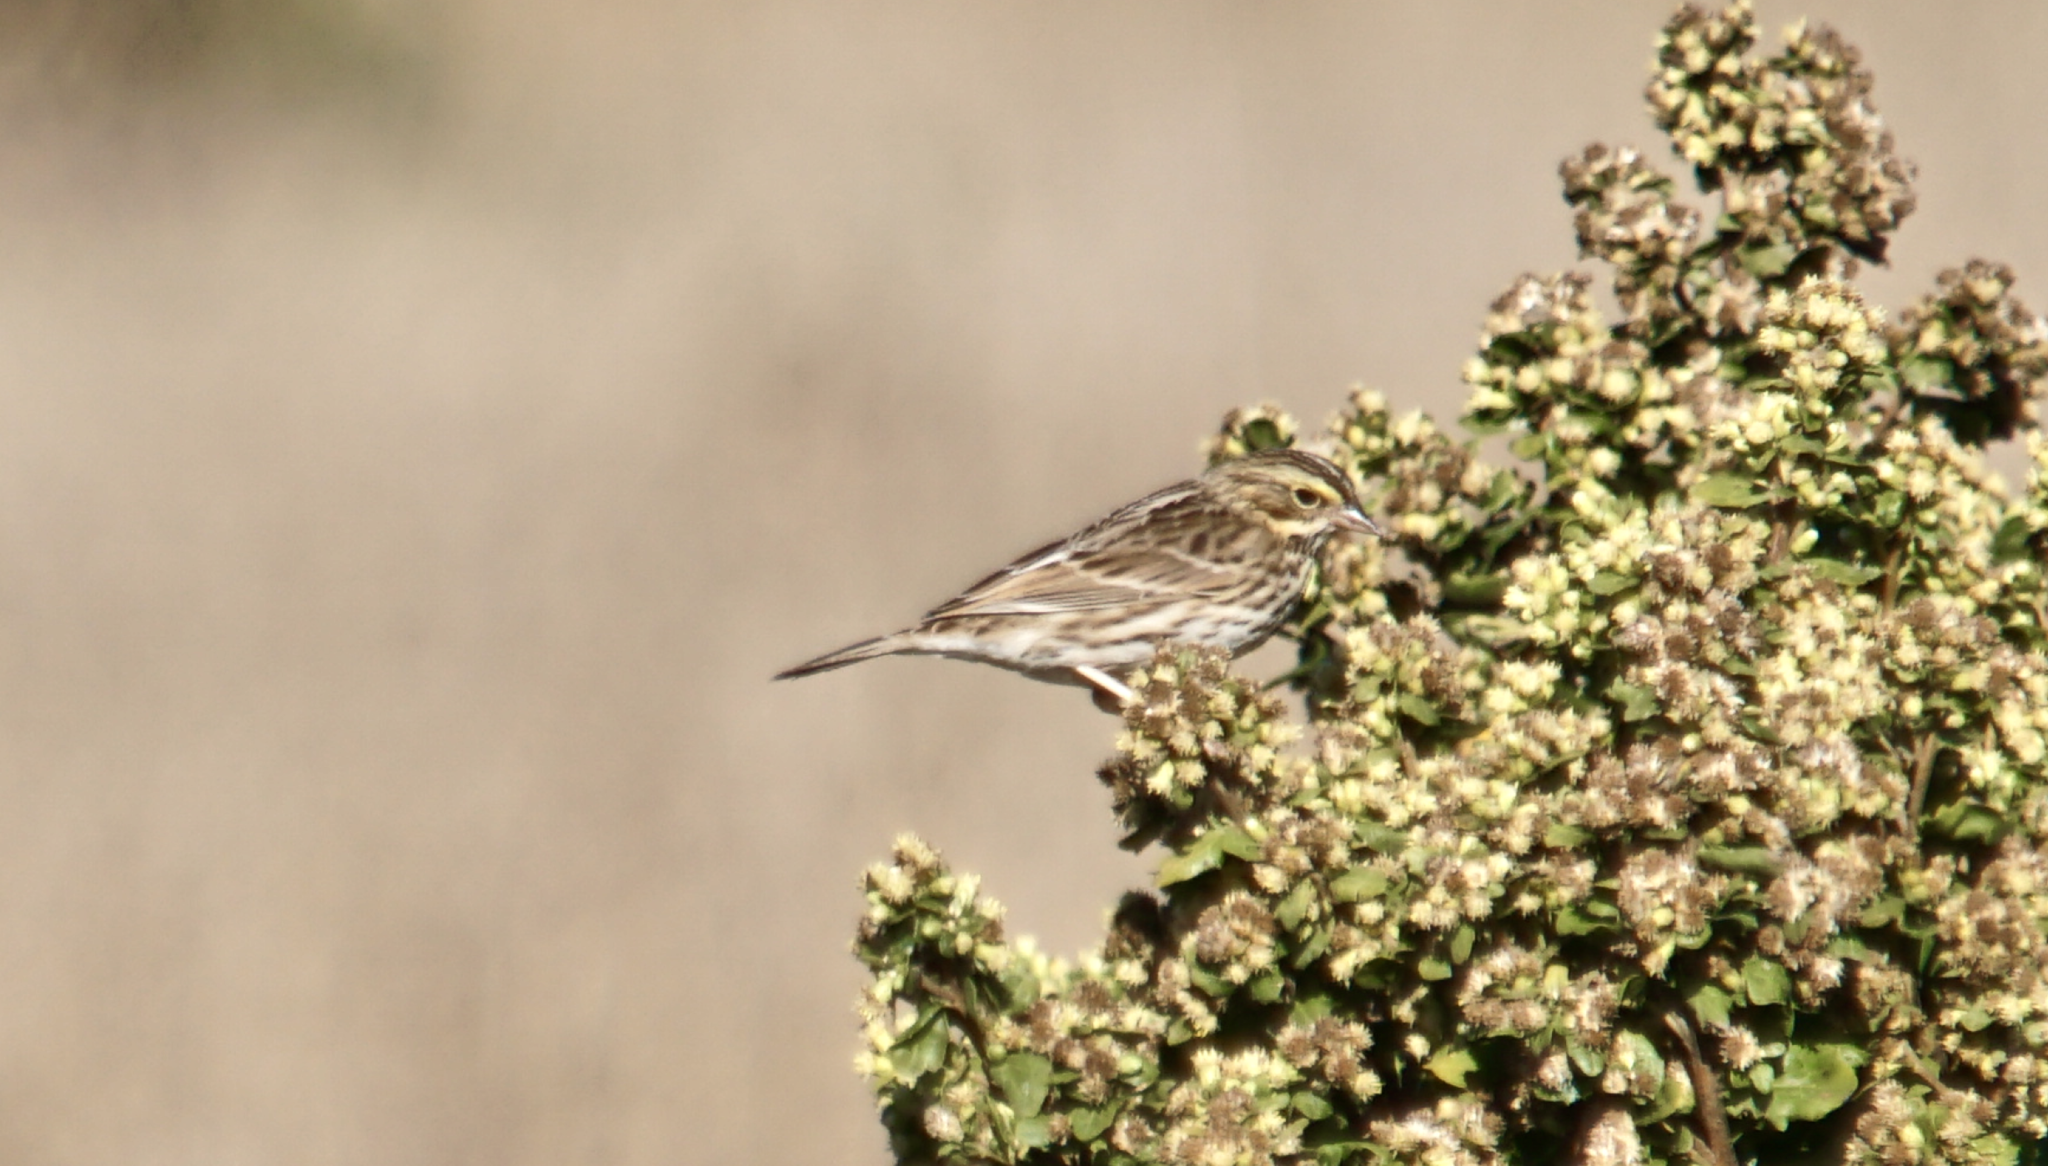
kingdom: Animalia
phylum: Chordata
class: Aves
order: Passeriformes
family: Passerellidae
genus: Passerculus
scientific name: Passerculus sandwichensis
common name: Savannah sparrow
